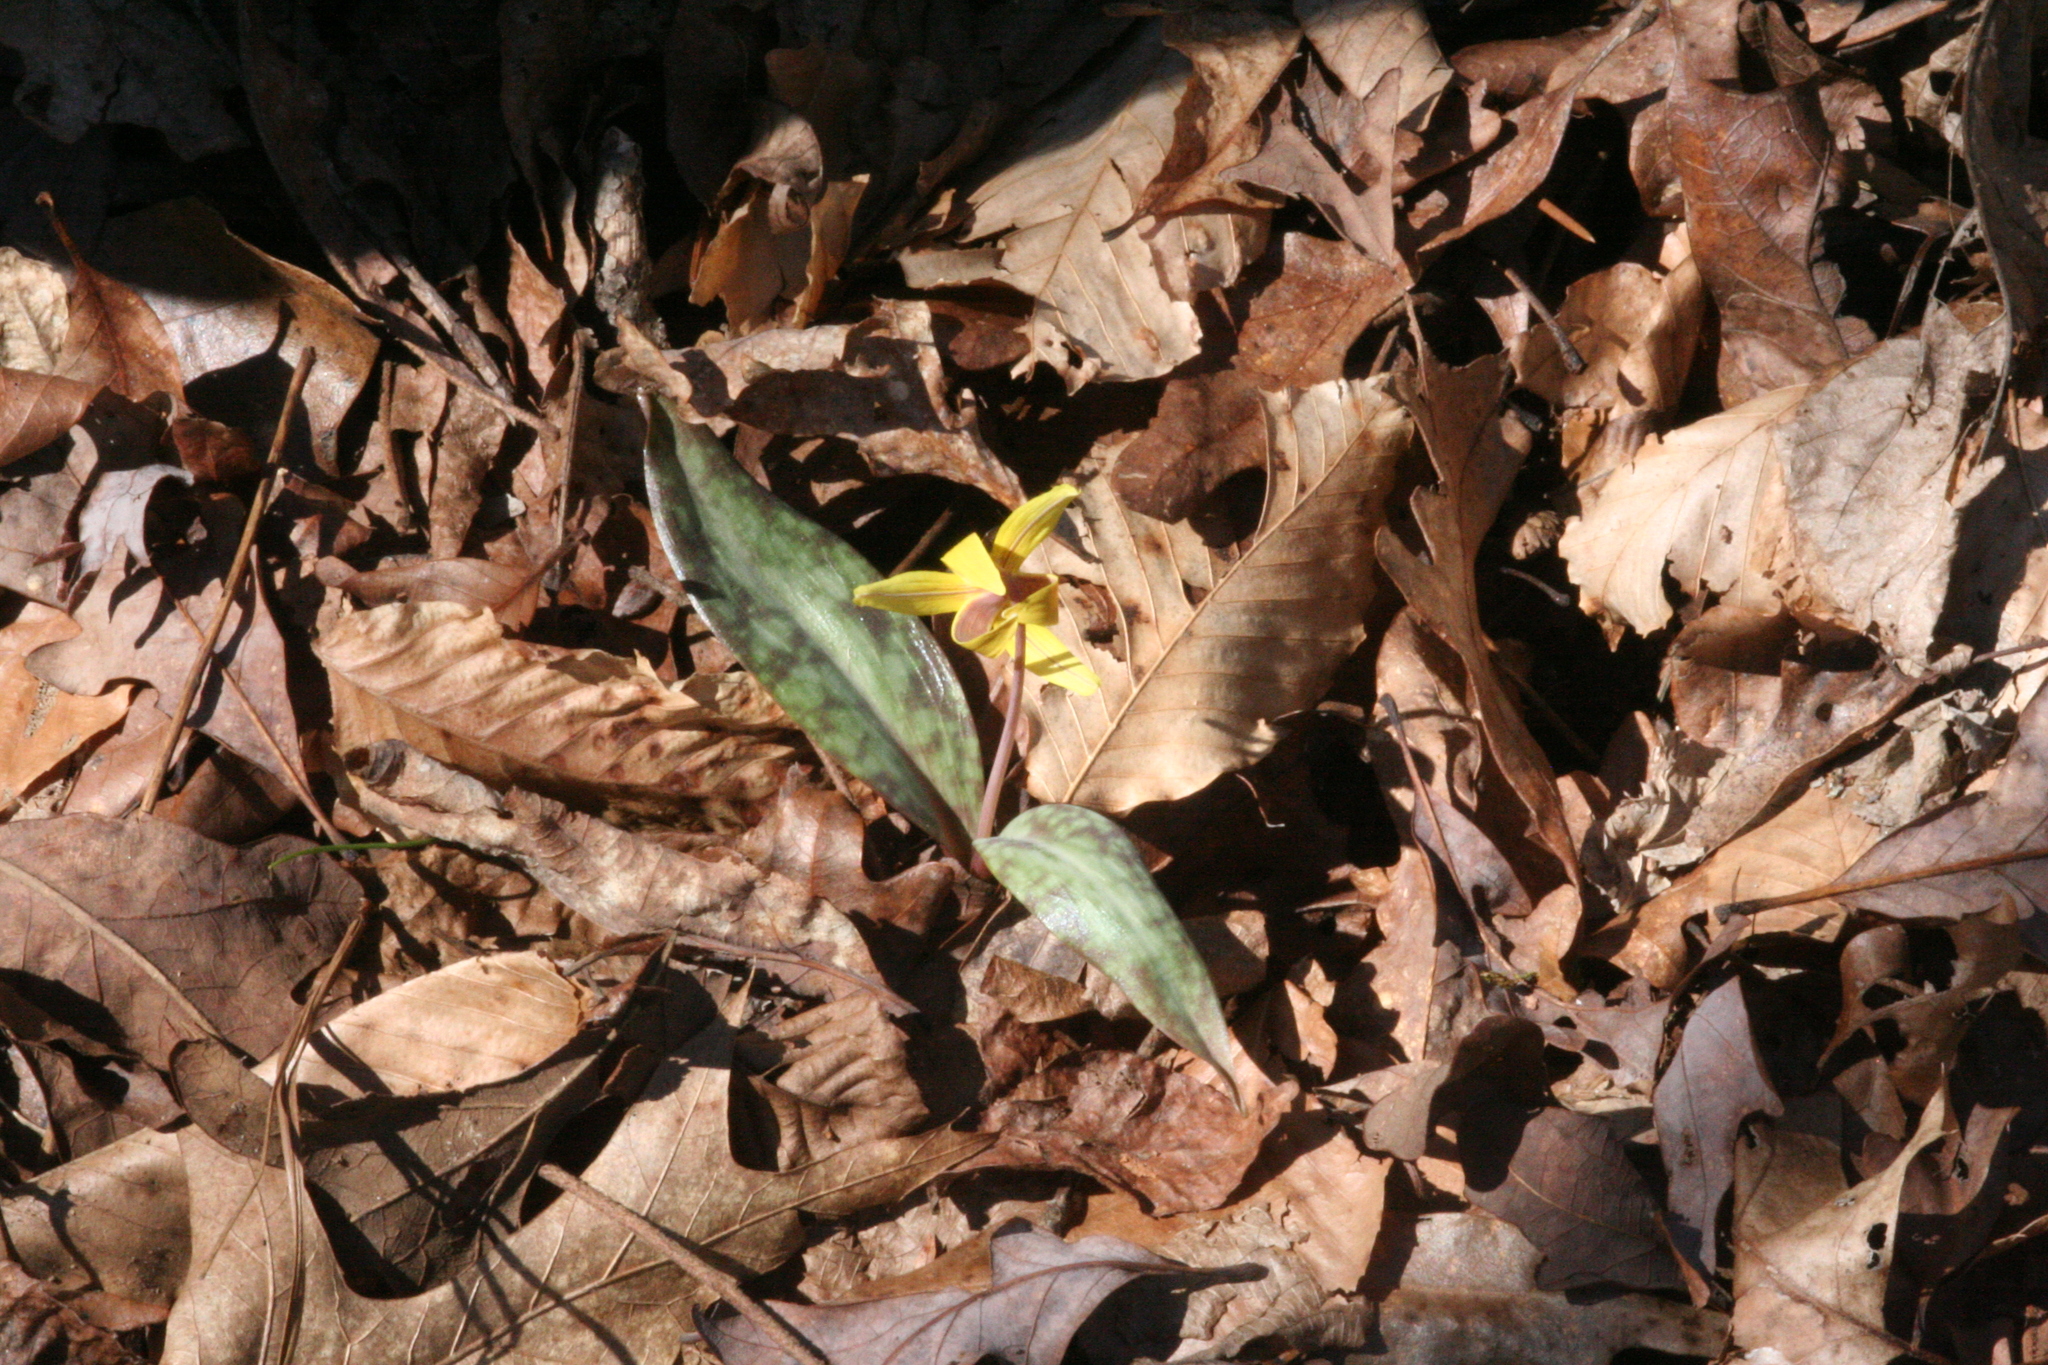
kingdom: Plantae
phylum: Tracheophyta
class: Liliopsida
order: Liliales
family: Liliaceae
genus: Erythronium
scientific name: Erythronium umbilicatum
